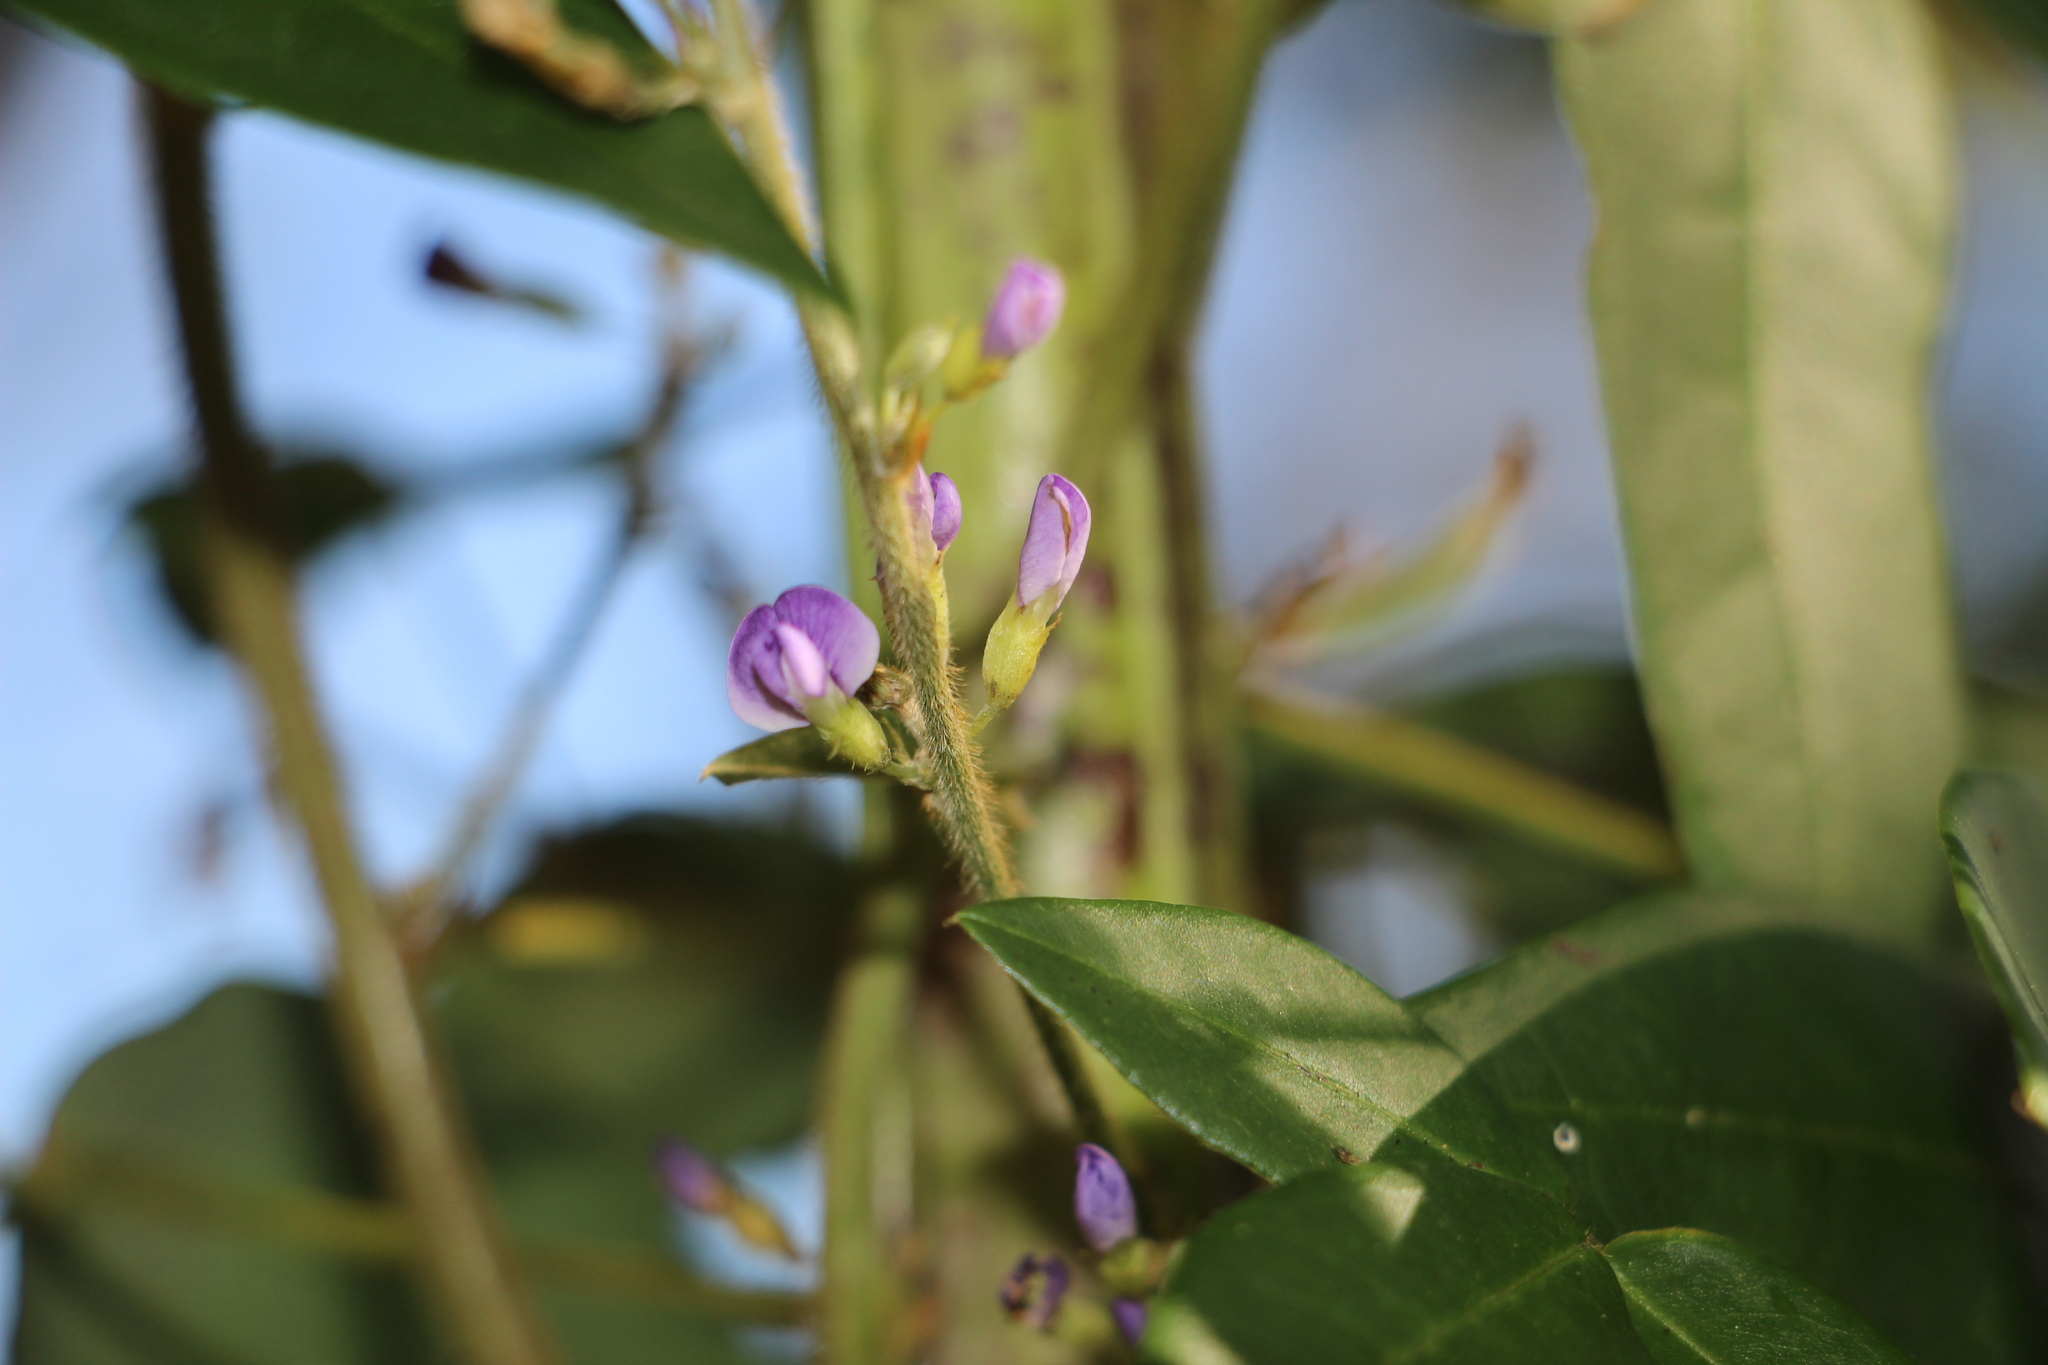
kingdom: Plantae
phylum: Tracheophyta
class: Magnoliopsida
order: Fabales
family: Fabaceae
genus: Calopogonium
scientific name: Calopogonium galactioides
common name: Legume
